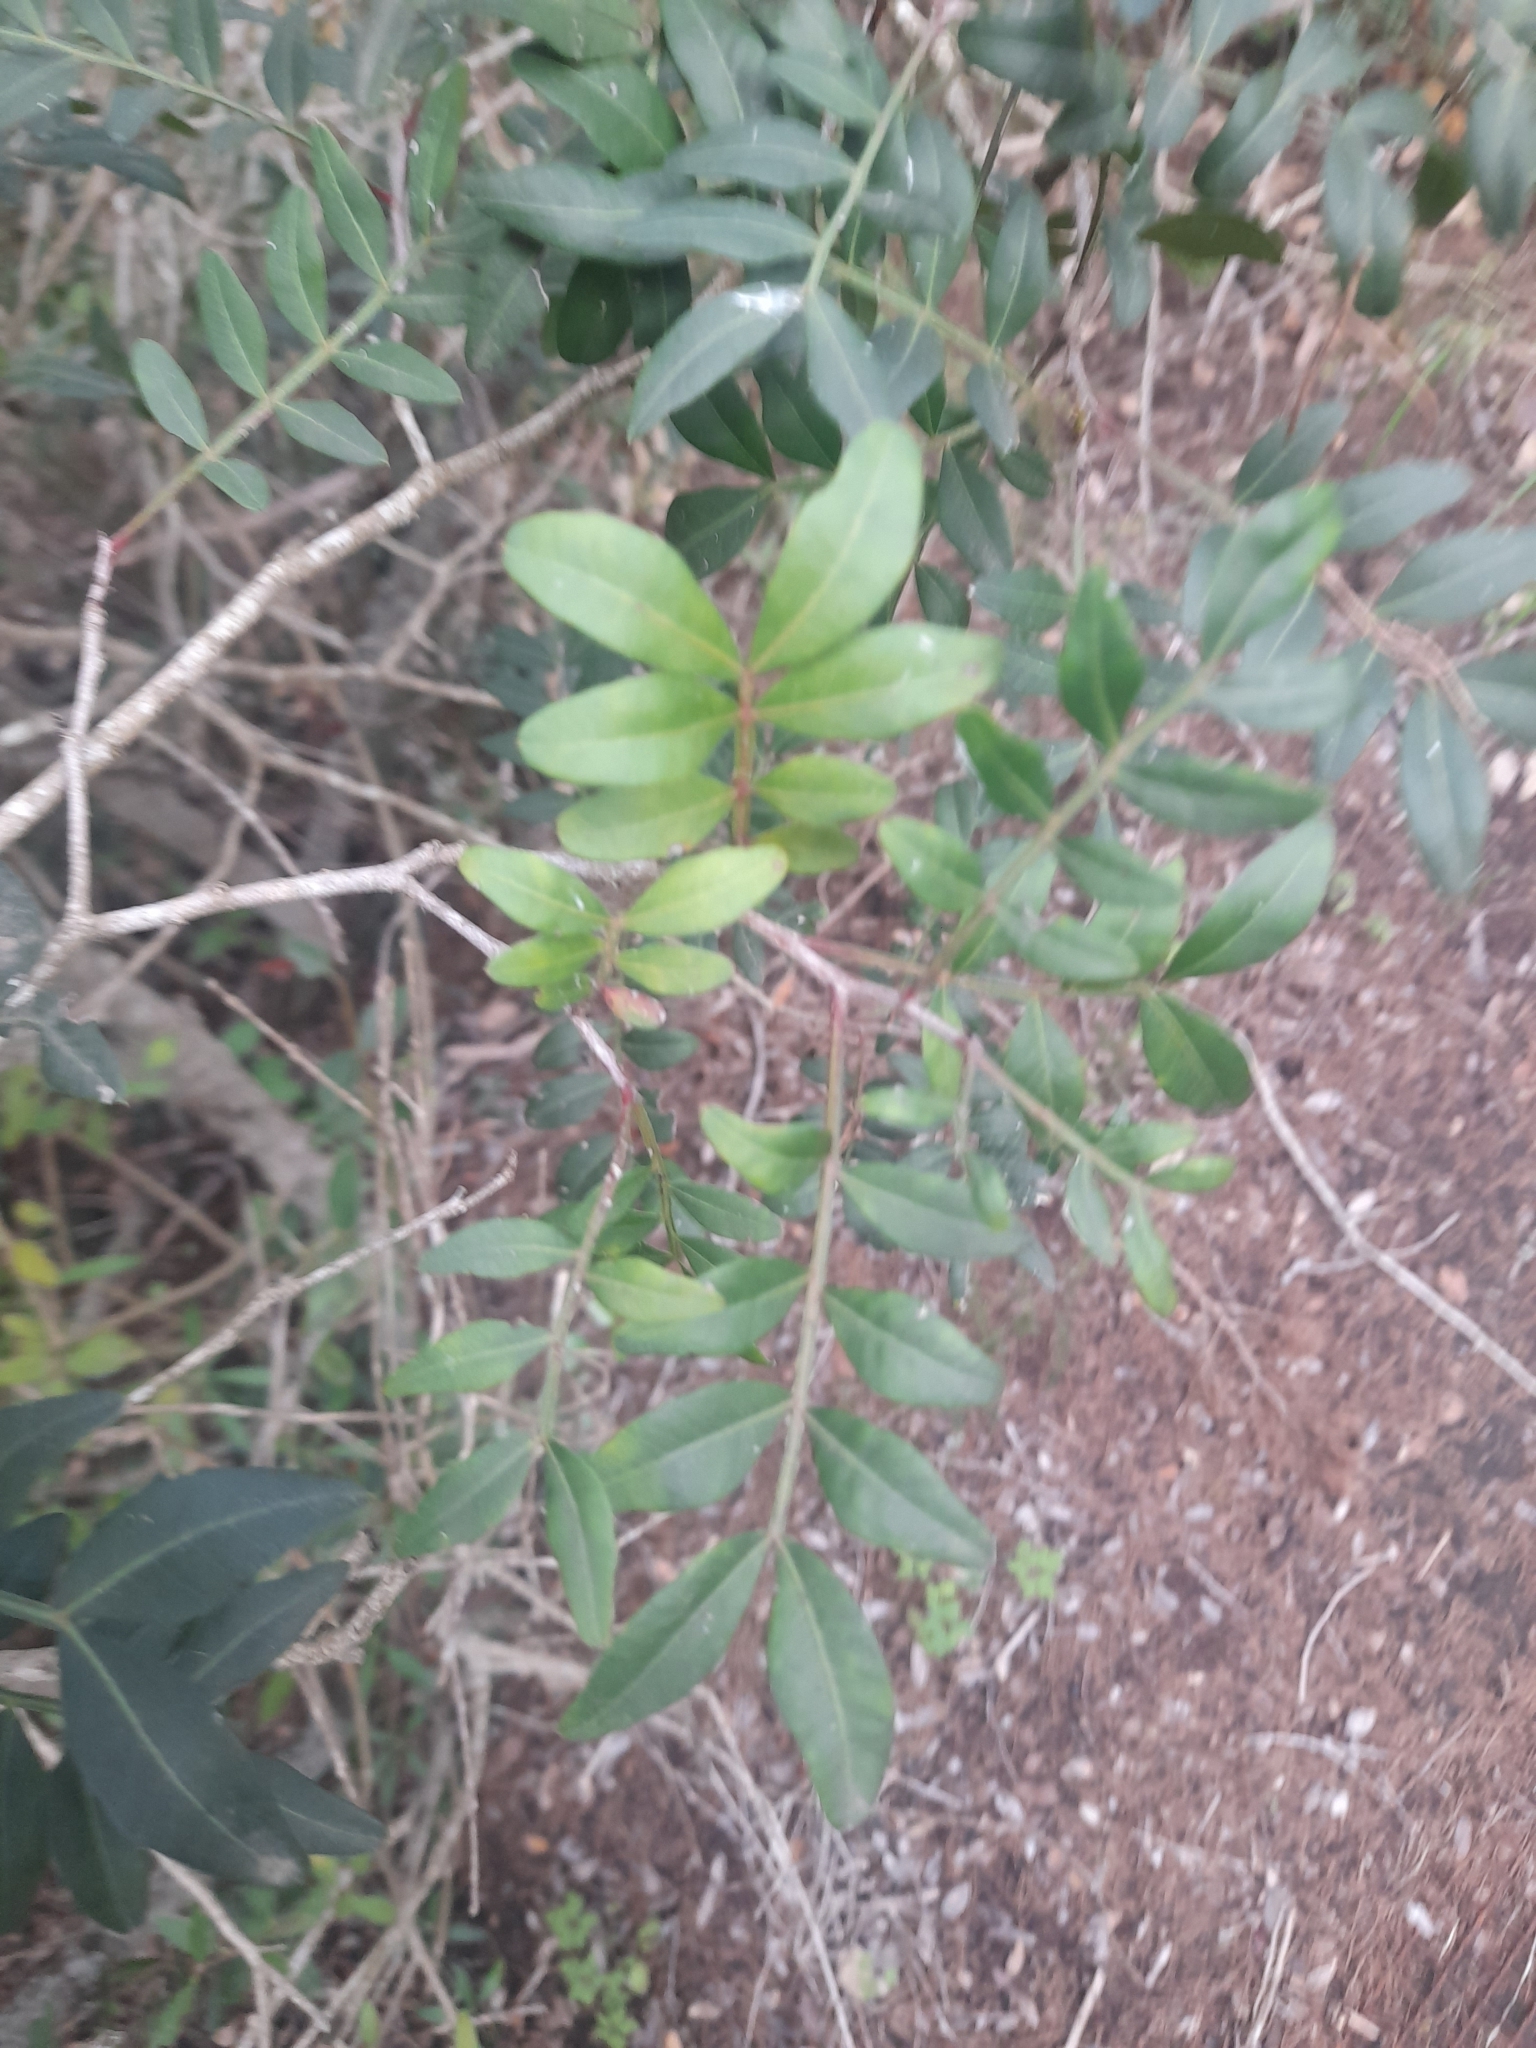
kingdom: Plantae
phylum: Tracheophyta
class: Magnoliopsida
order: Sapindales
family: Anacardiaceae
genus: Pistacia
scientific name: Pistacia lentiscus
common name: Lentisk
